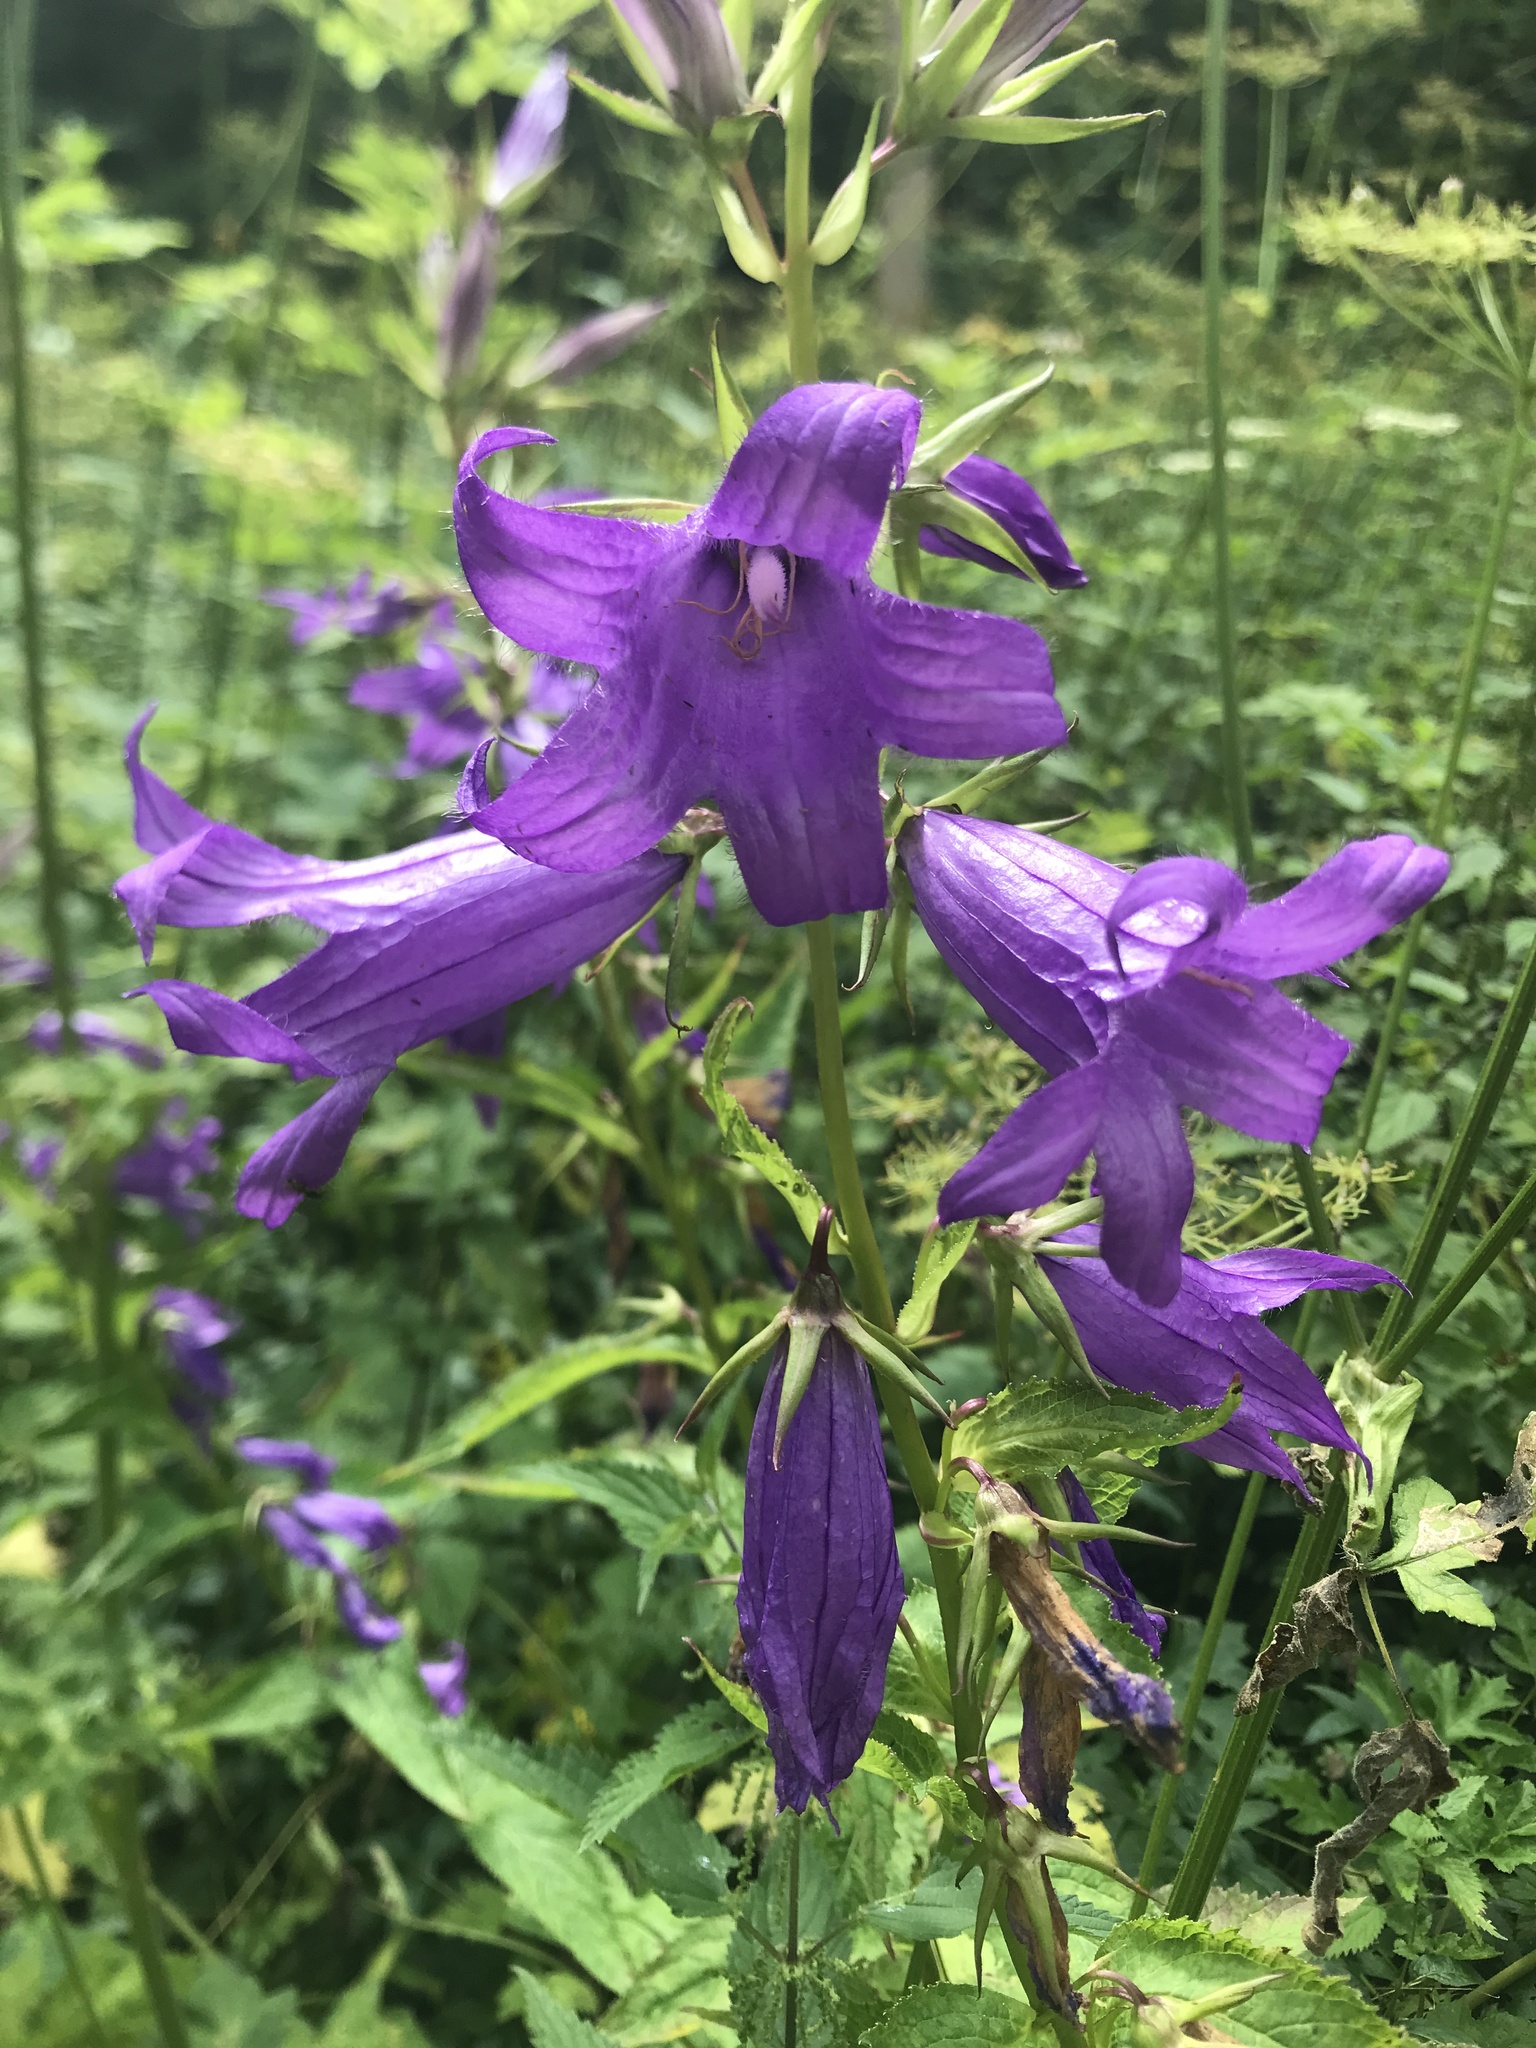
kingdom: Plantae
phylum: Tracheophyta
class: Magnoliopsida
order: Asterales
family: Campanulaceae
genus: Campanula
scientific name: Campanula latifolia
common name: Giant bellflower
